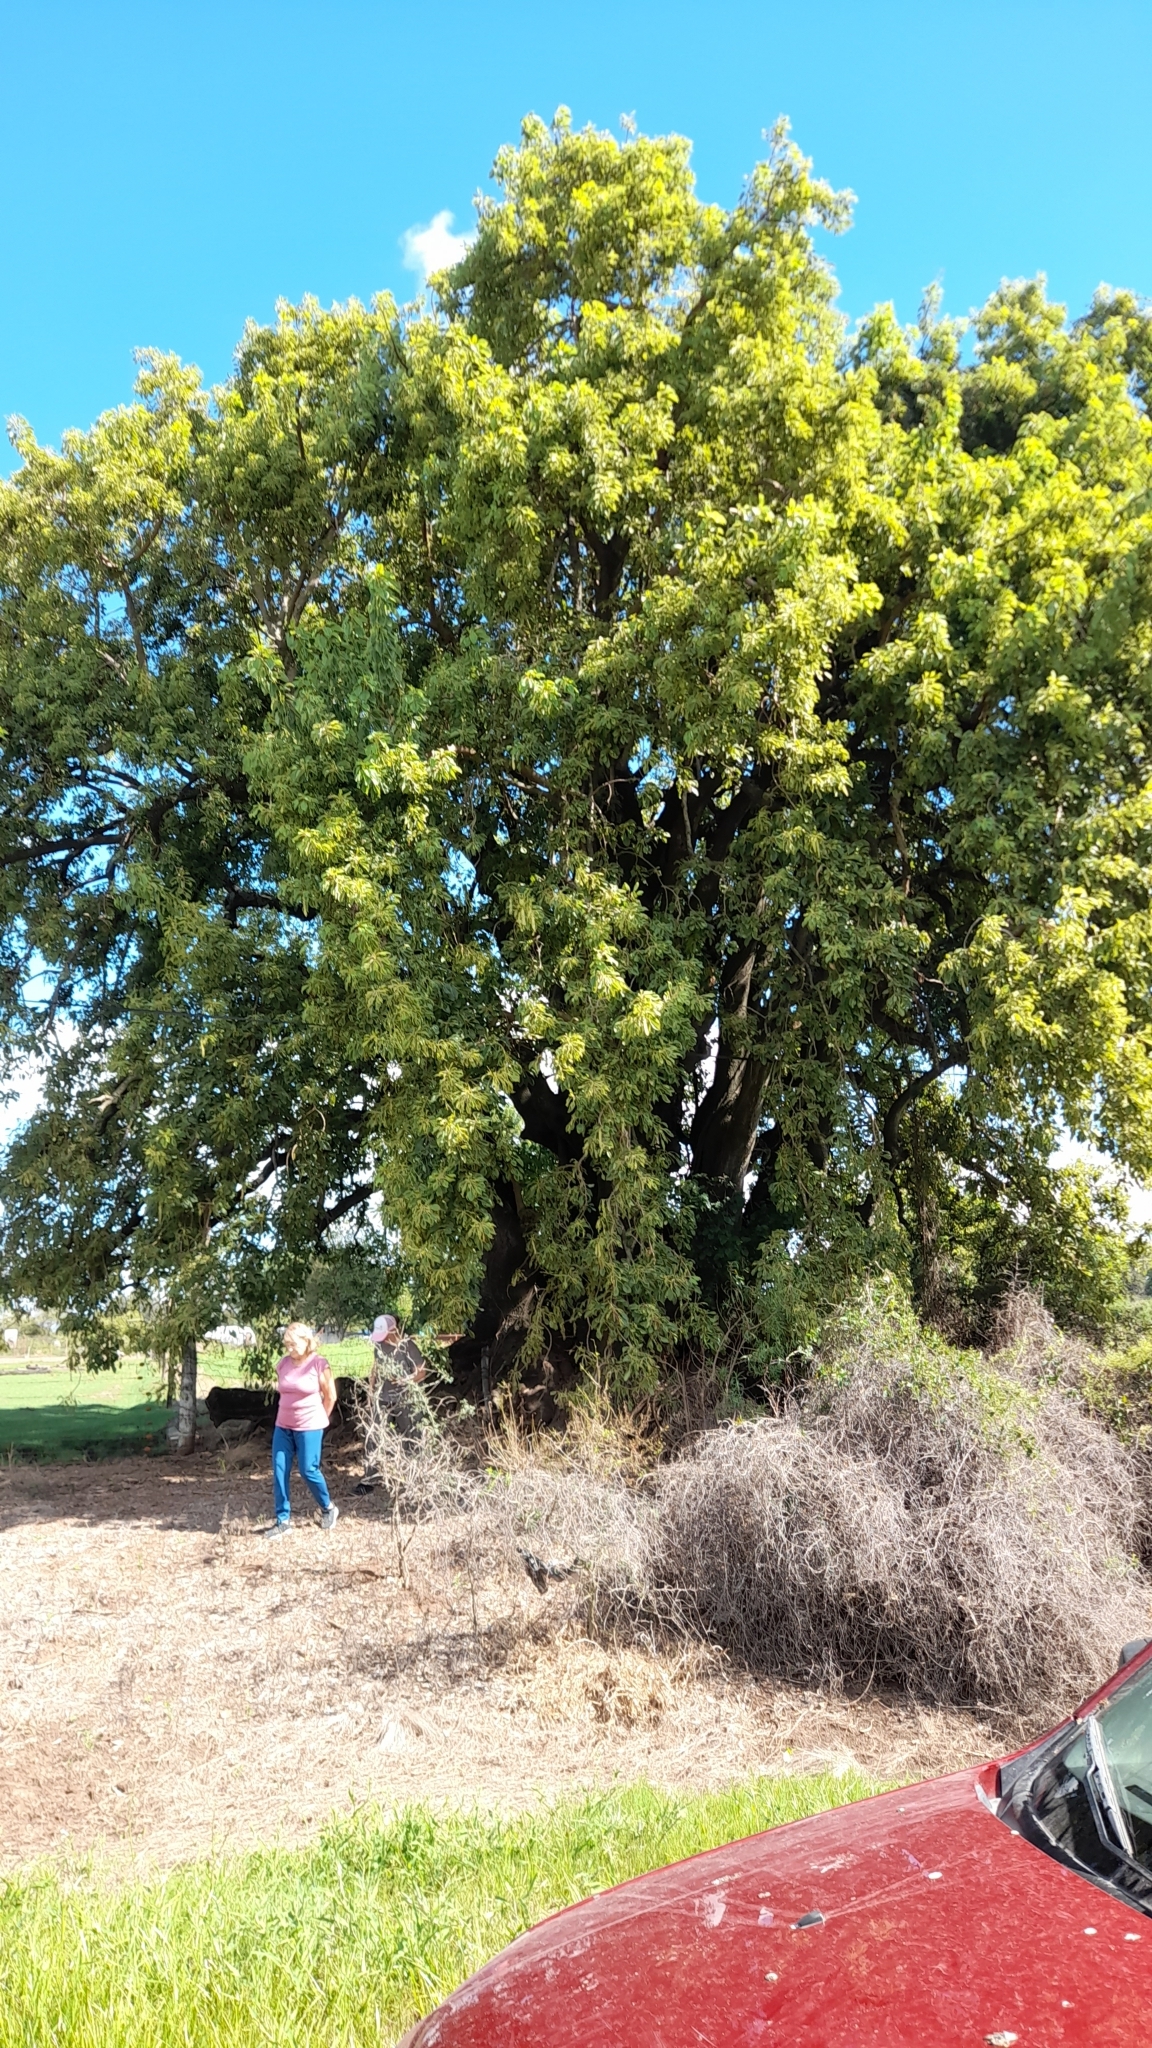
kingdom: Plantae
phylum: Tracheophyta
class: Magnoliopsida
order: Caryophyllales
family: Phytolaccaceae
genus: Phytolacca
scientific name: Phytolacca dioica
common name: Pokeweed
